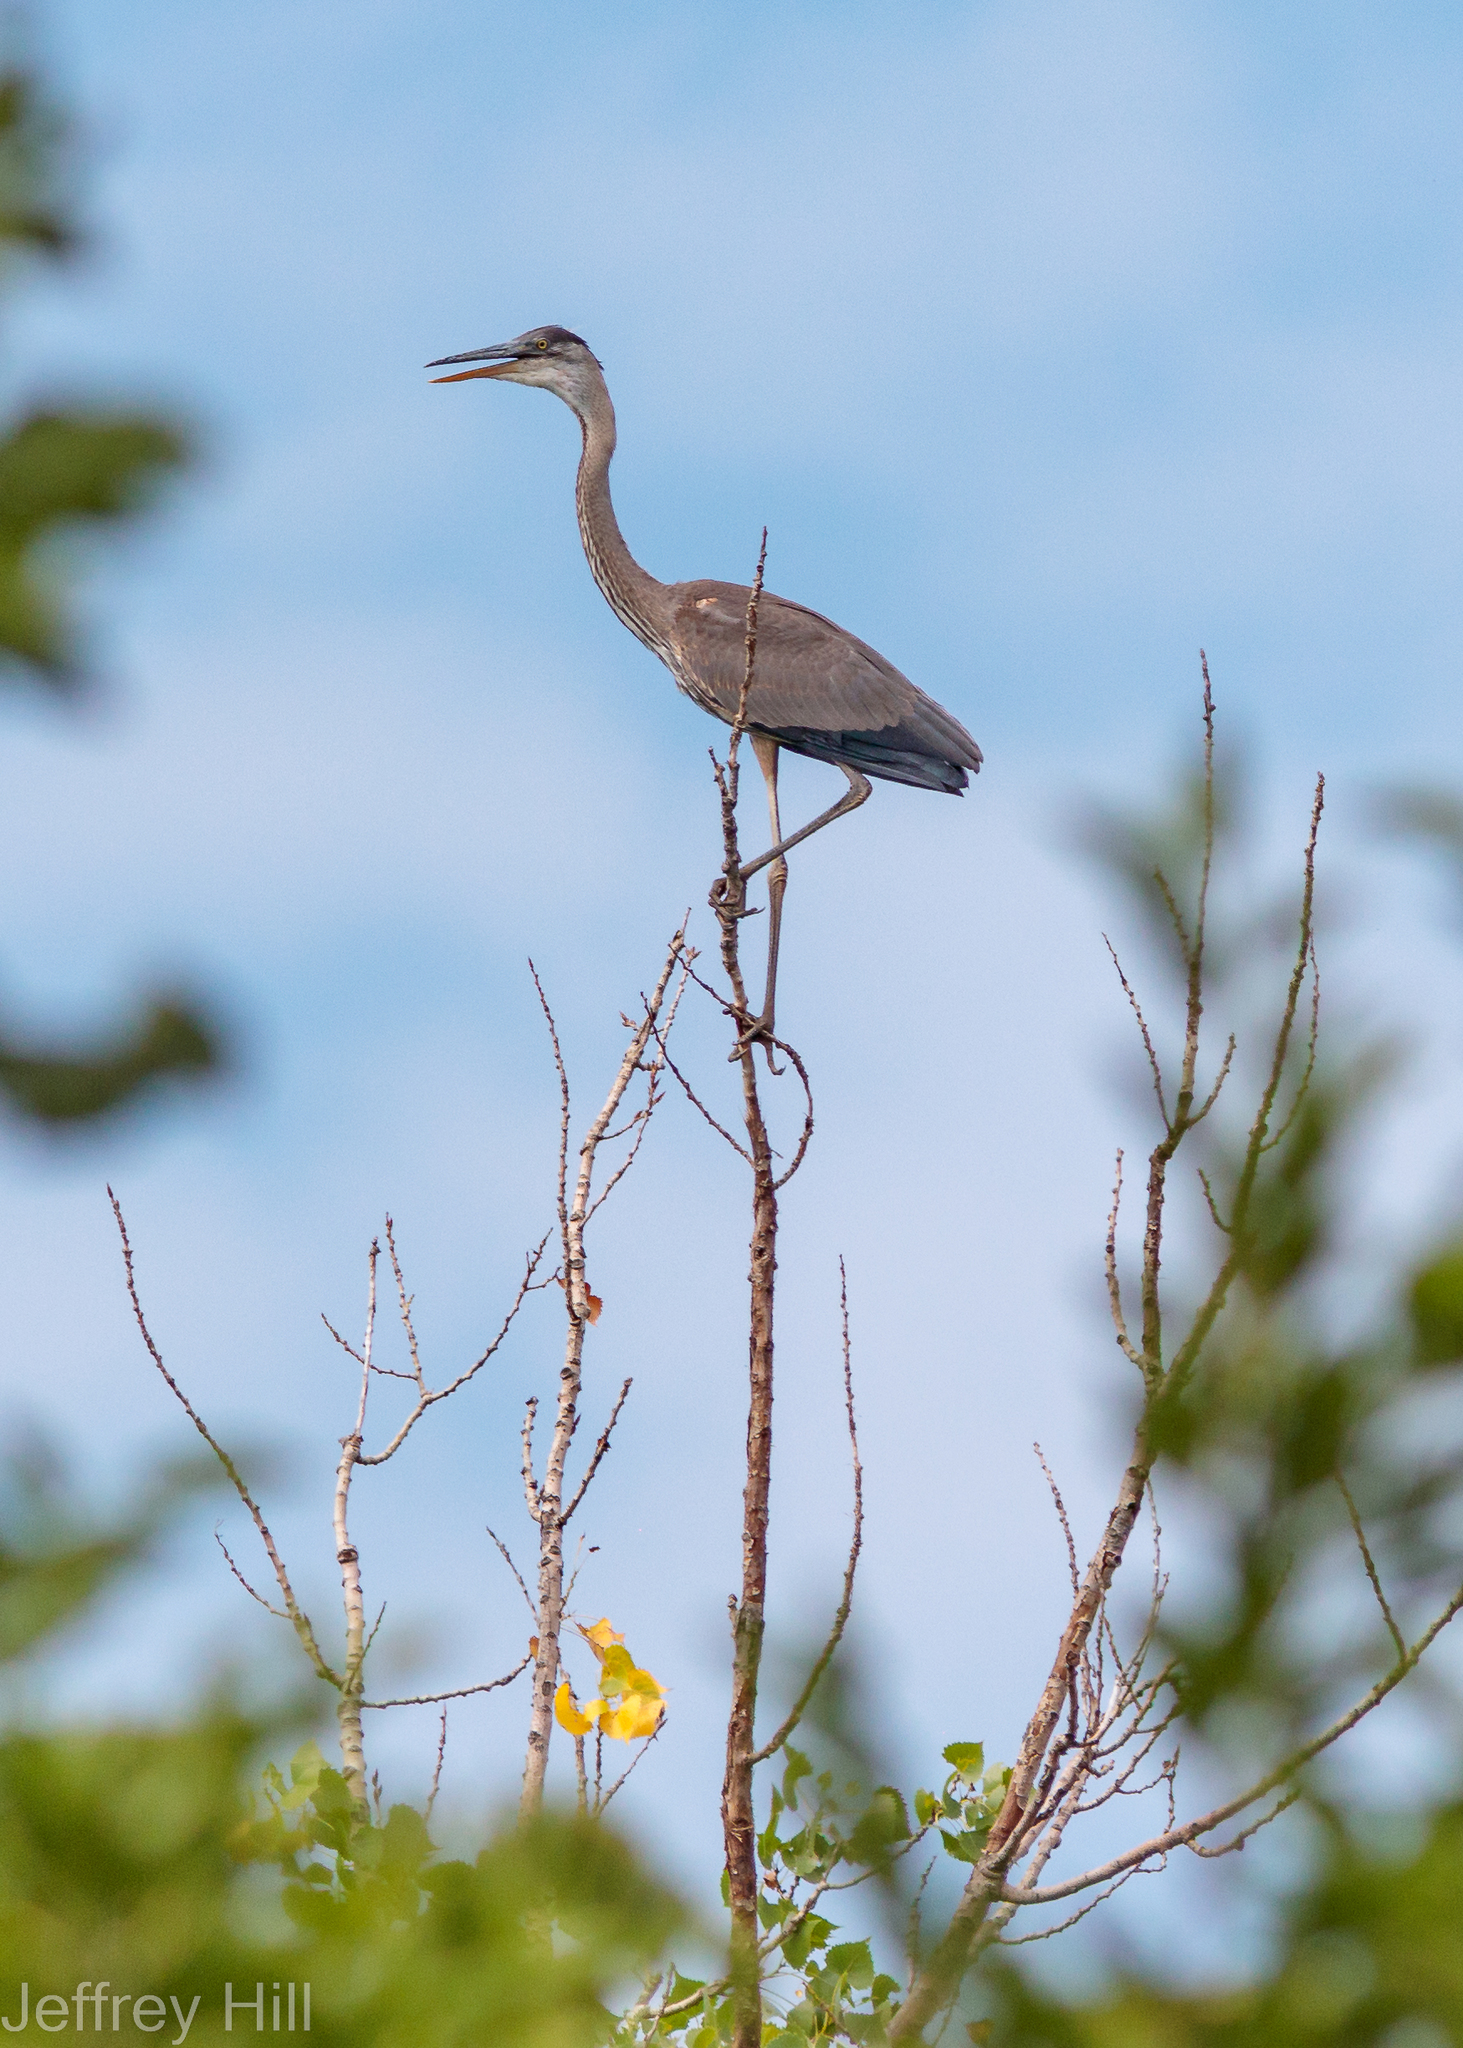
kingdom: Animalia
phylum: Chordata
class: Aves
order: Pelecaniformes
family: Ardeidae
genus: Ardea
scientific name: Ardea herodias
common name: Great blue heron
